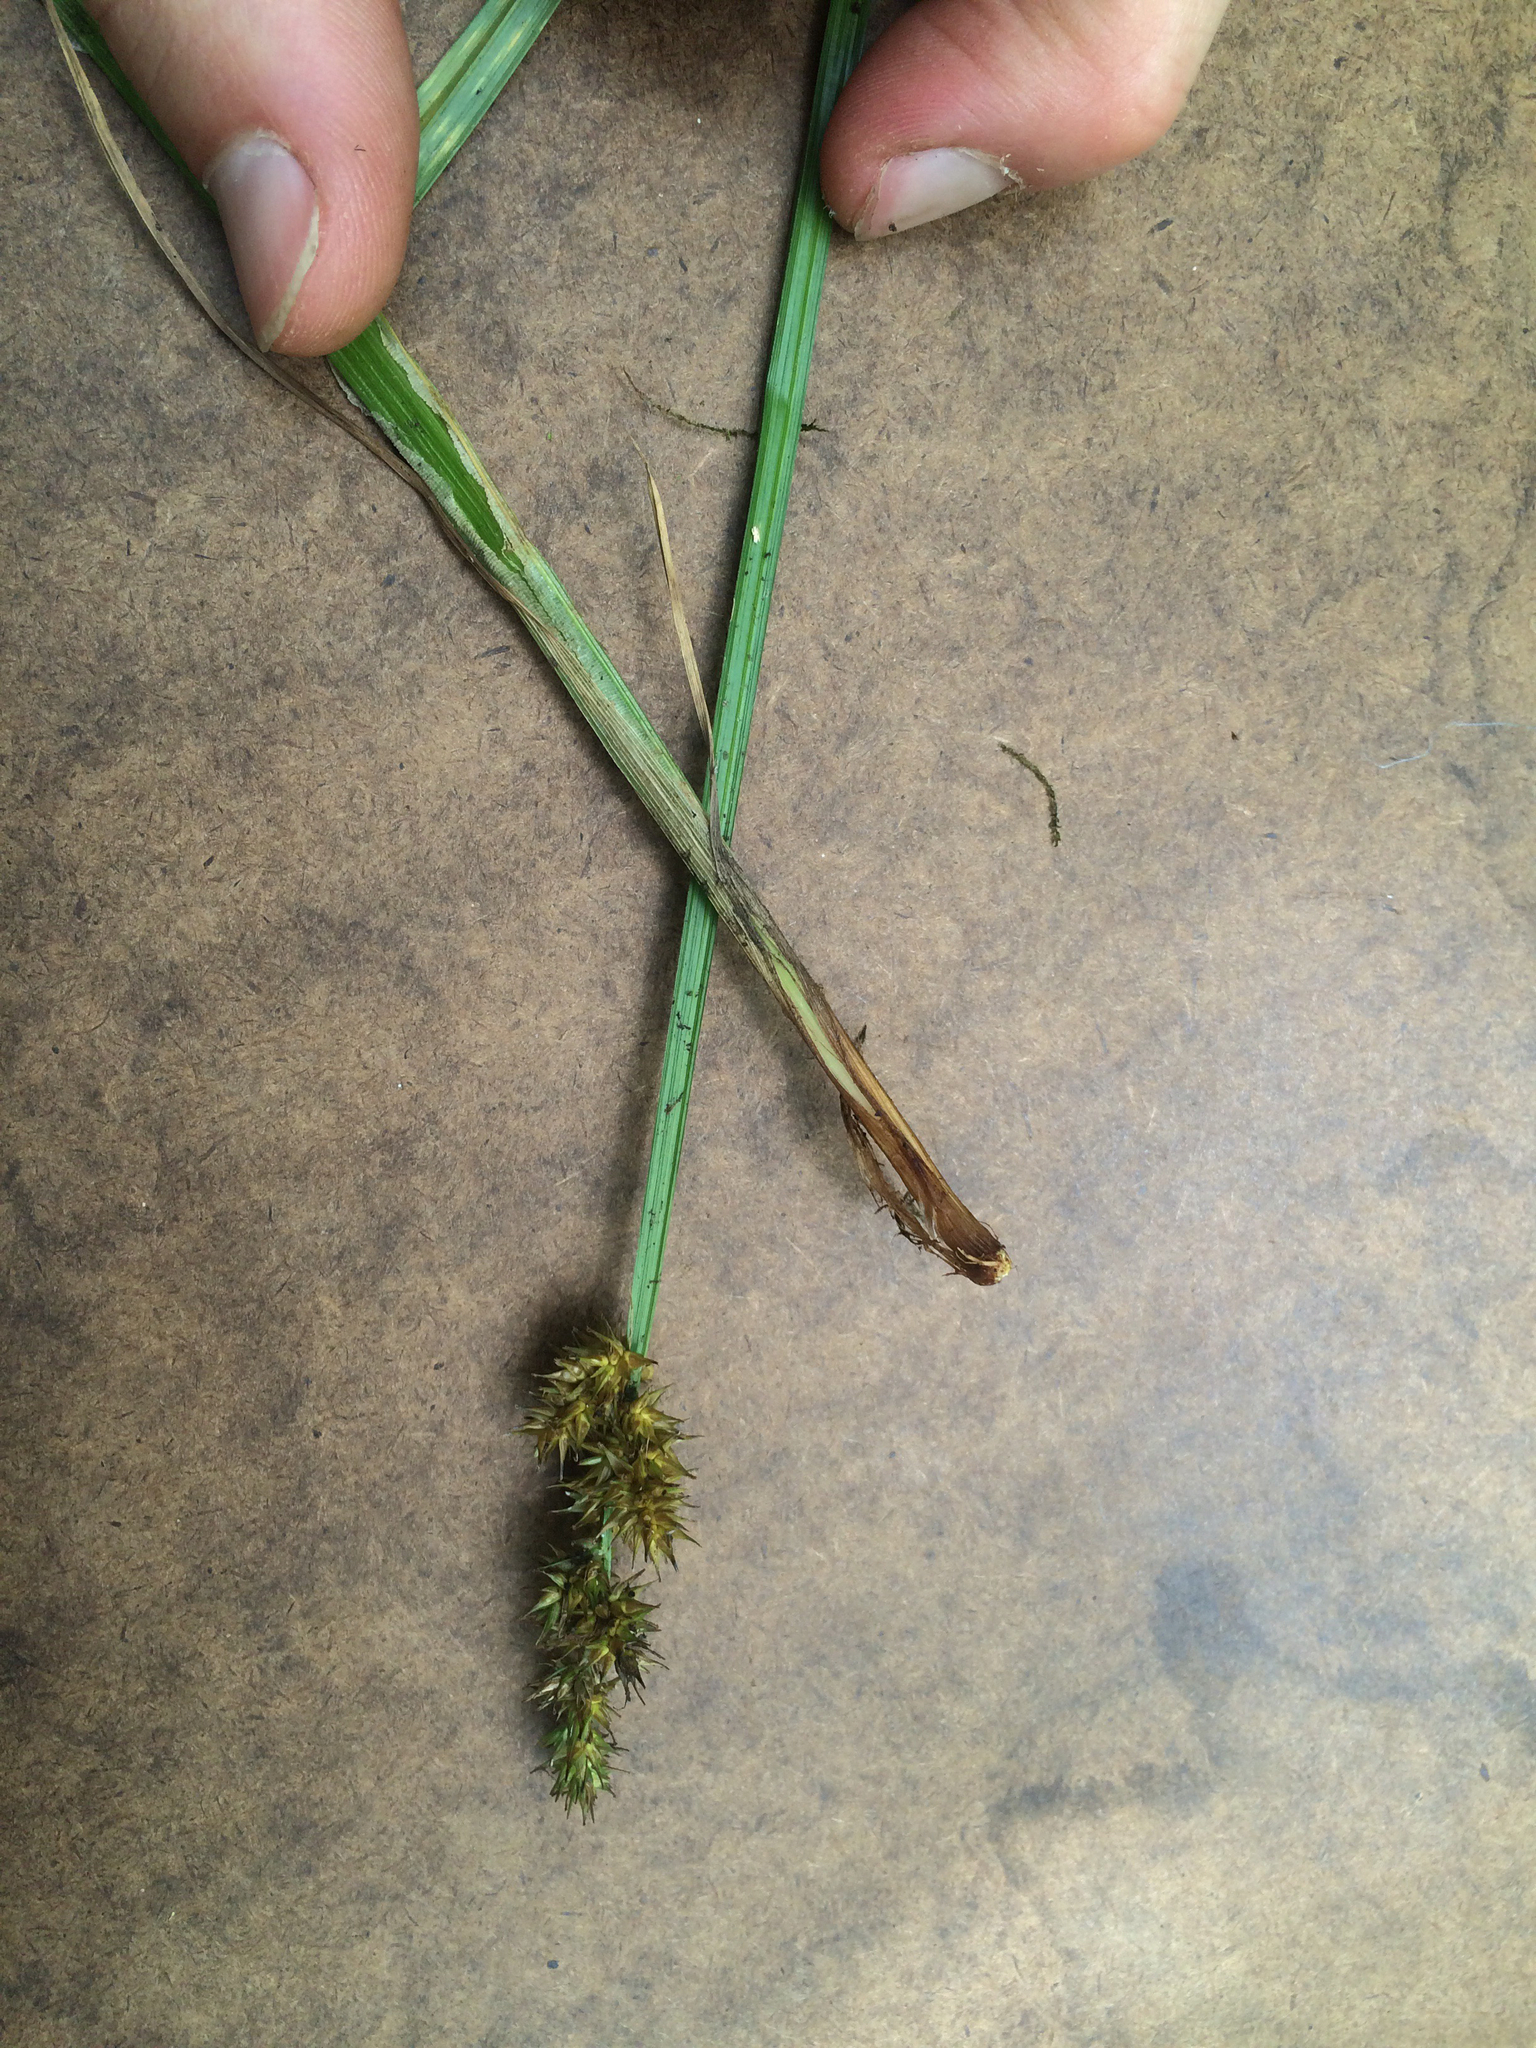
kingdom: Plantae
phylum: Tracheophyta
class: Liliopsida
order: Poales
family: Cyperaceae
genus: Carex
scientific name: Carex stipata
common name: Awl-fruited sedge
